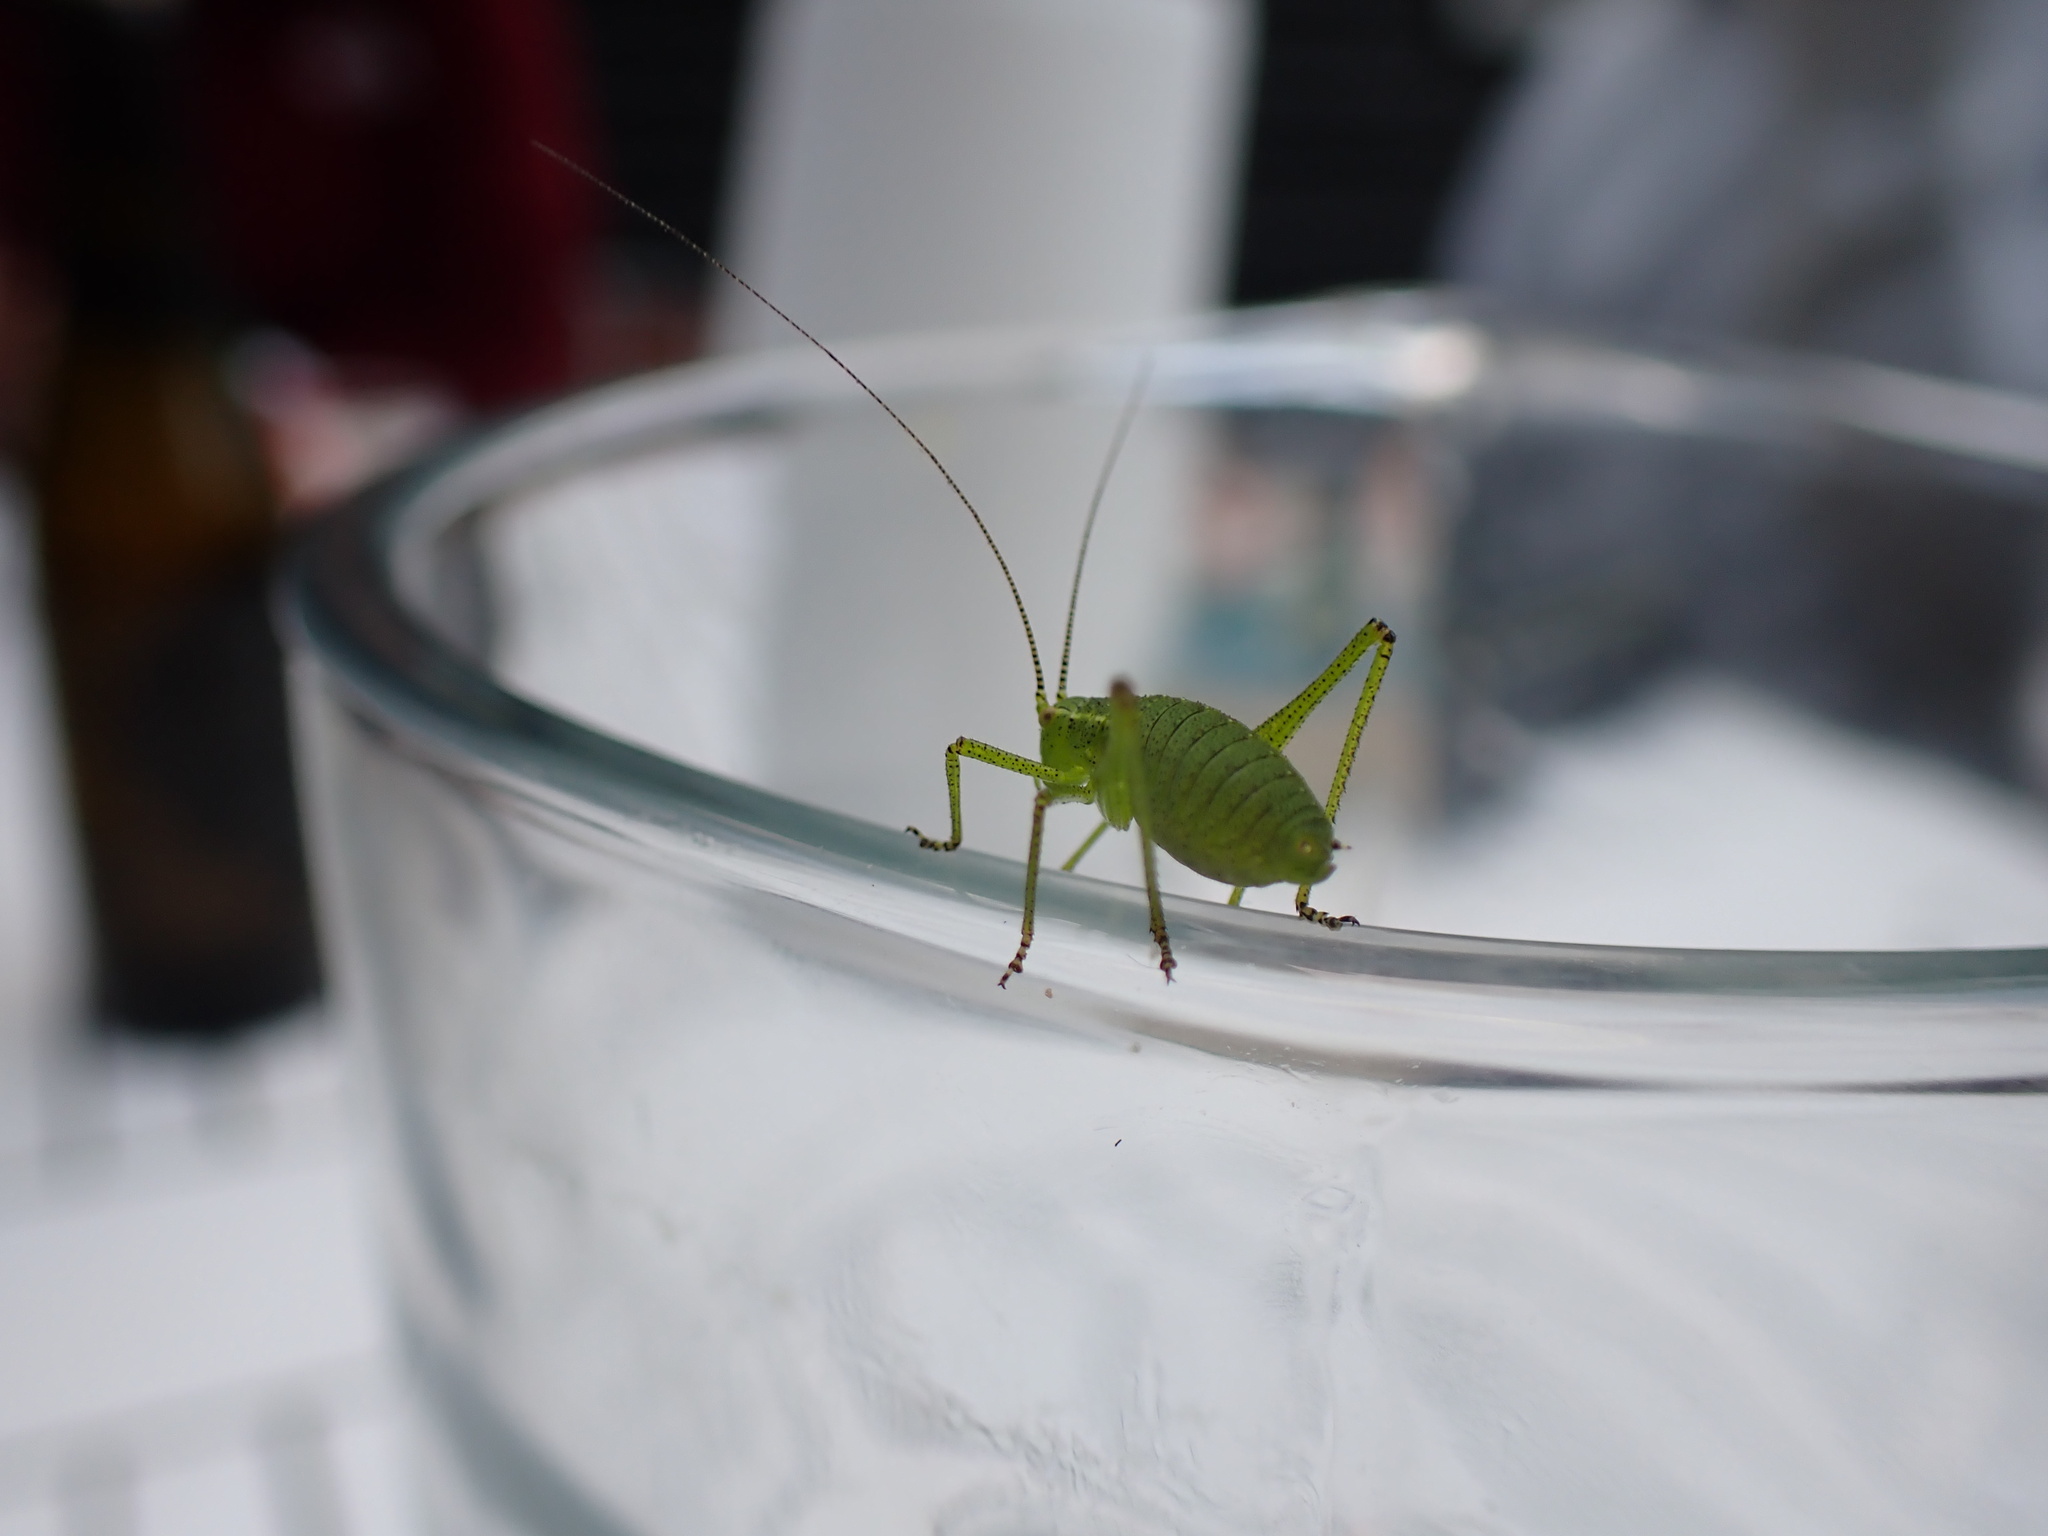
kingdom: Animalia
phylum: Arthropoda
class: Insecta
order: Orthoptera
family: Tettigoniidae
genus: Leptophyes
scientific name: Leptophyes punctatissima
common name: Speckled bush-cricket
